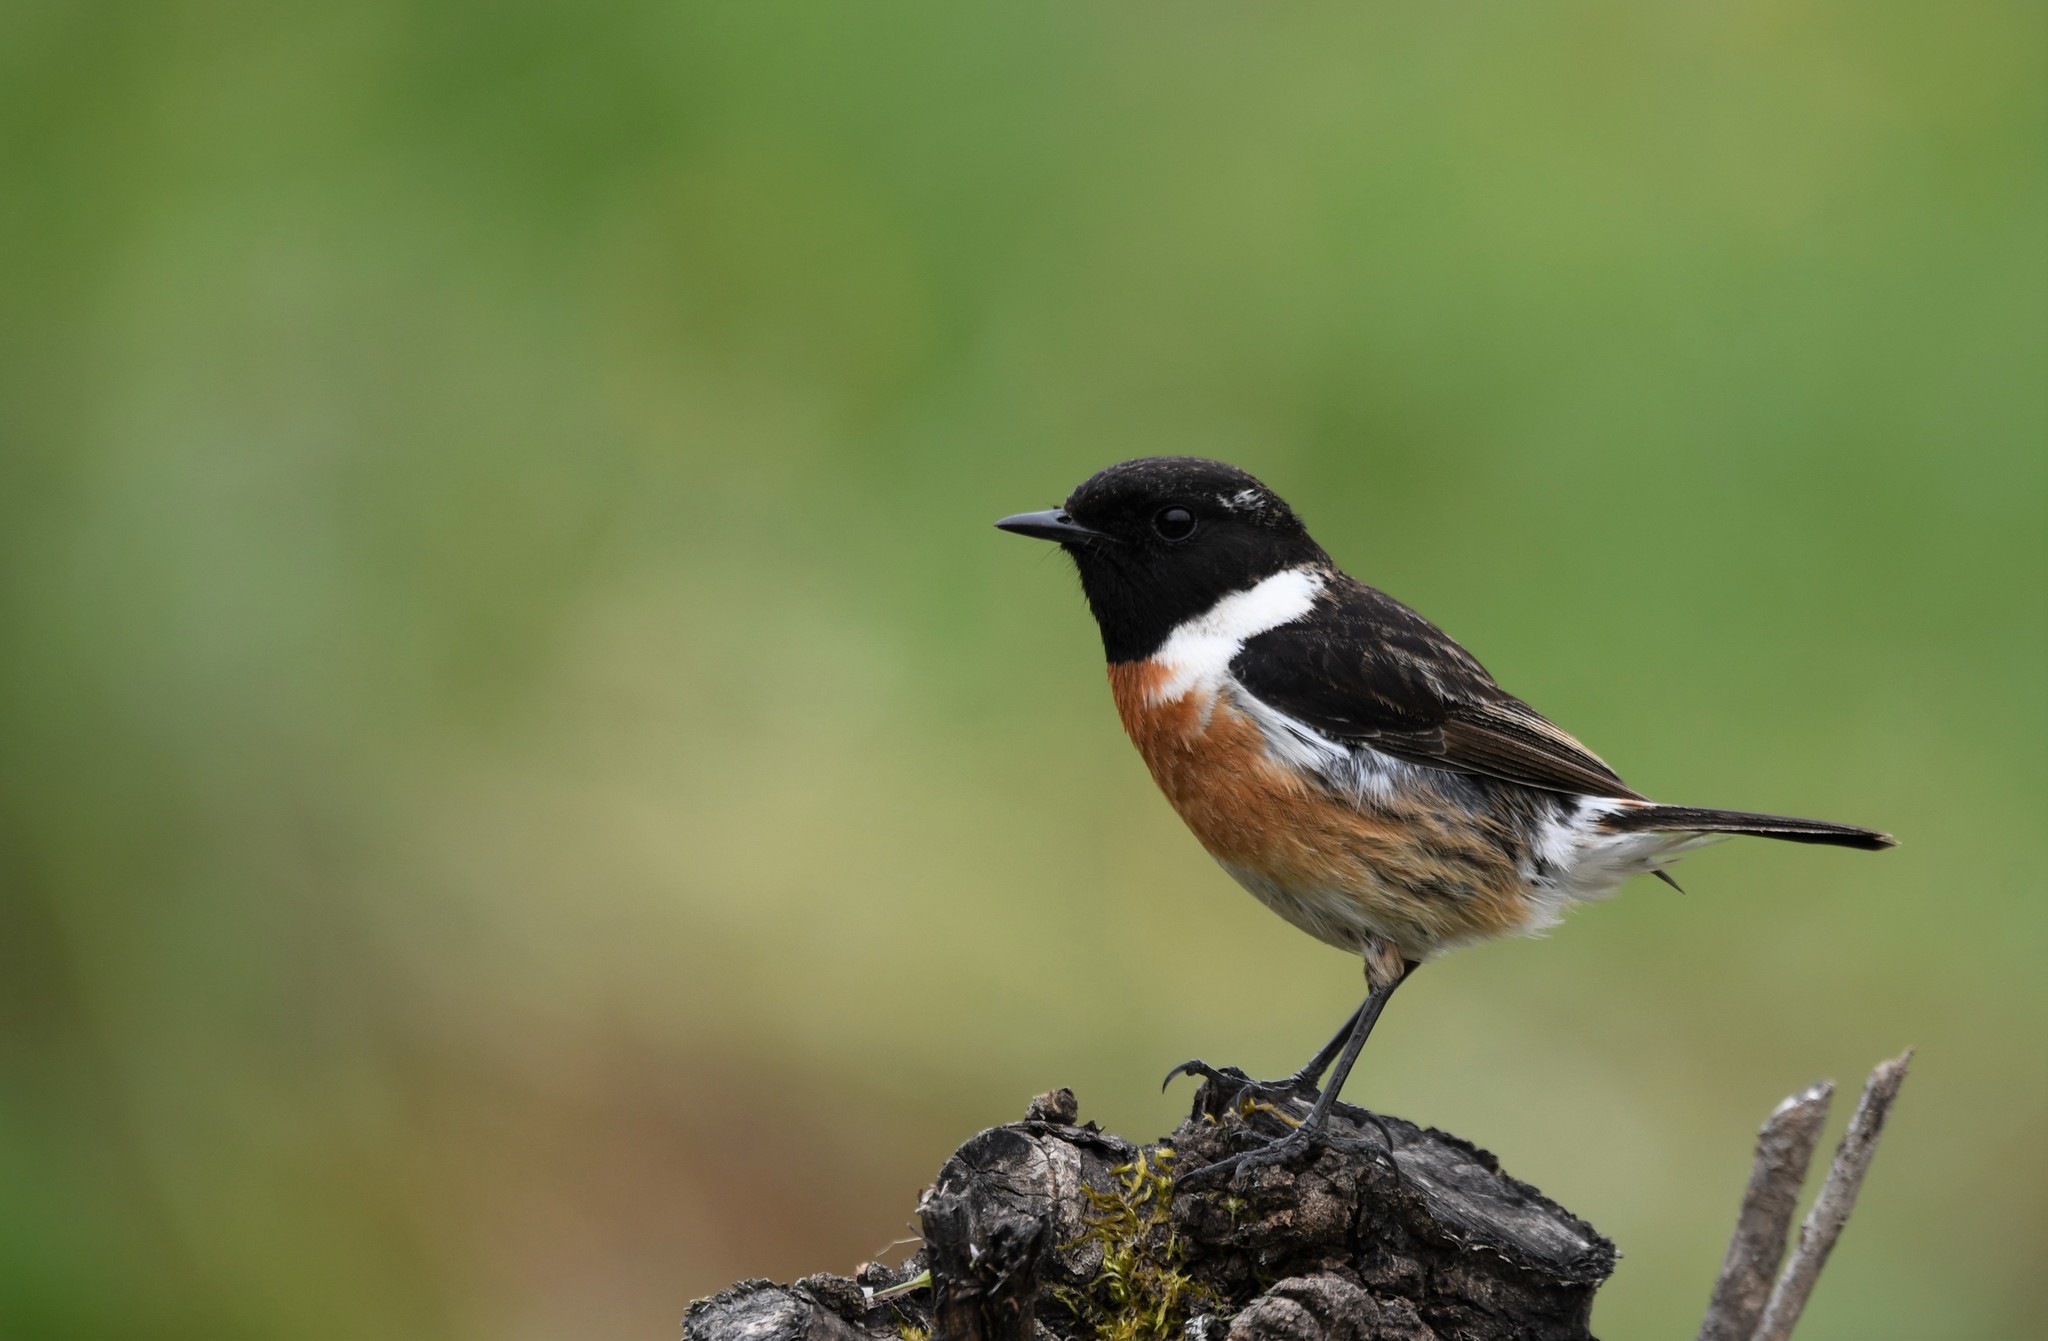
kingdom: Animalia
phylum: Chordata
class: Aves
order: Passeriformes
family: Muscicapidae
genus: Saxicola
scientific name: Saxicola rubicola
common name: European stonechat
